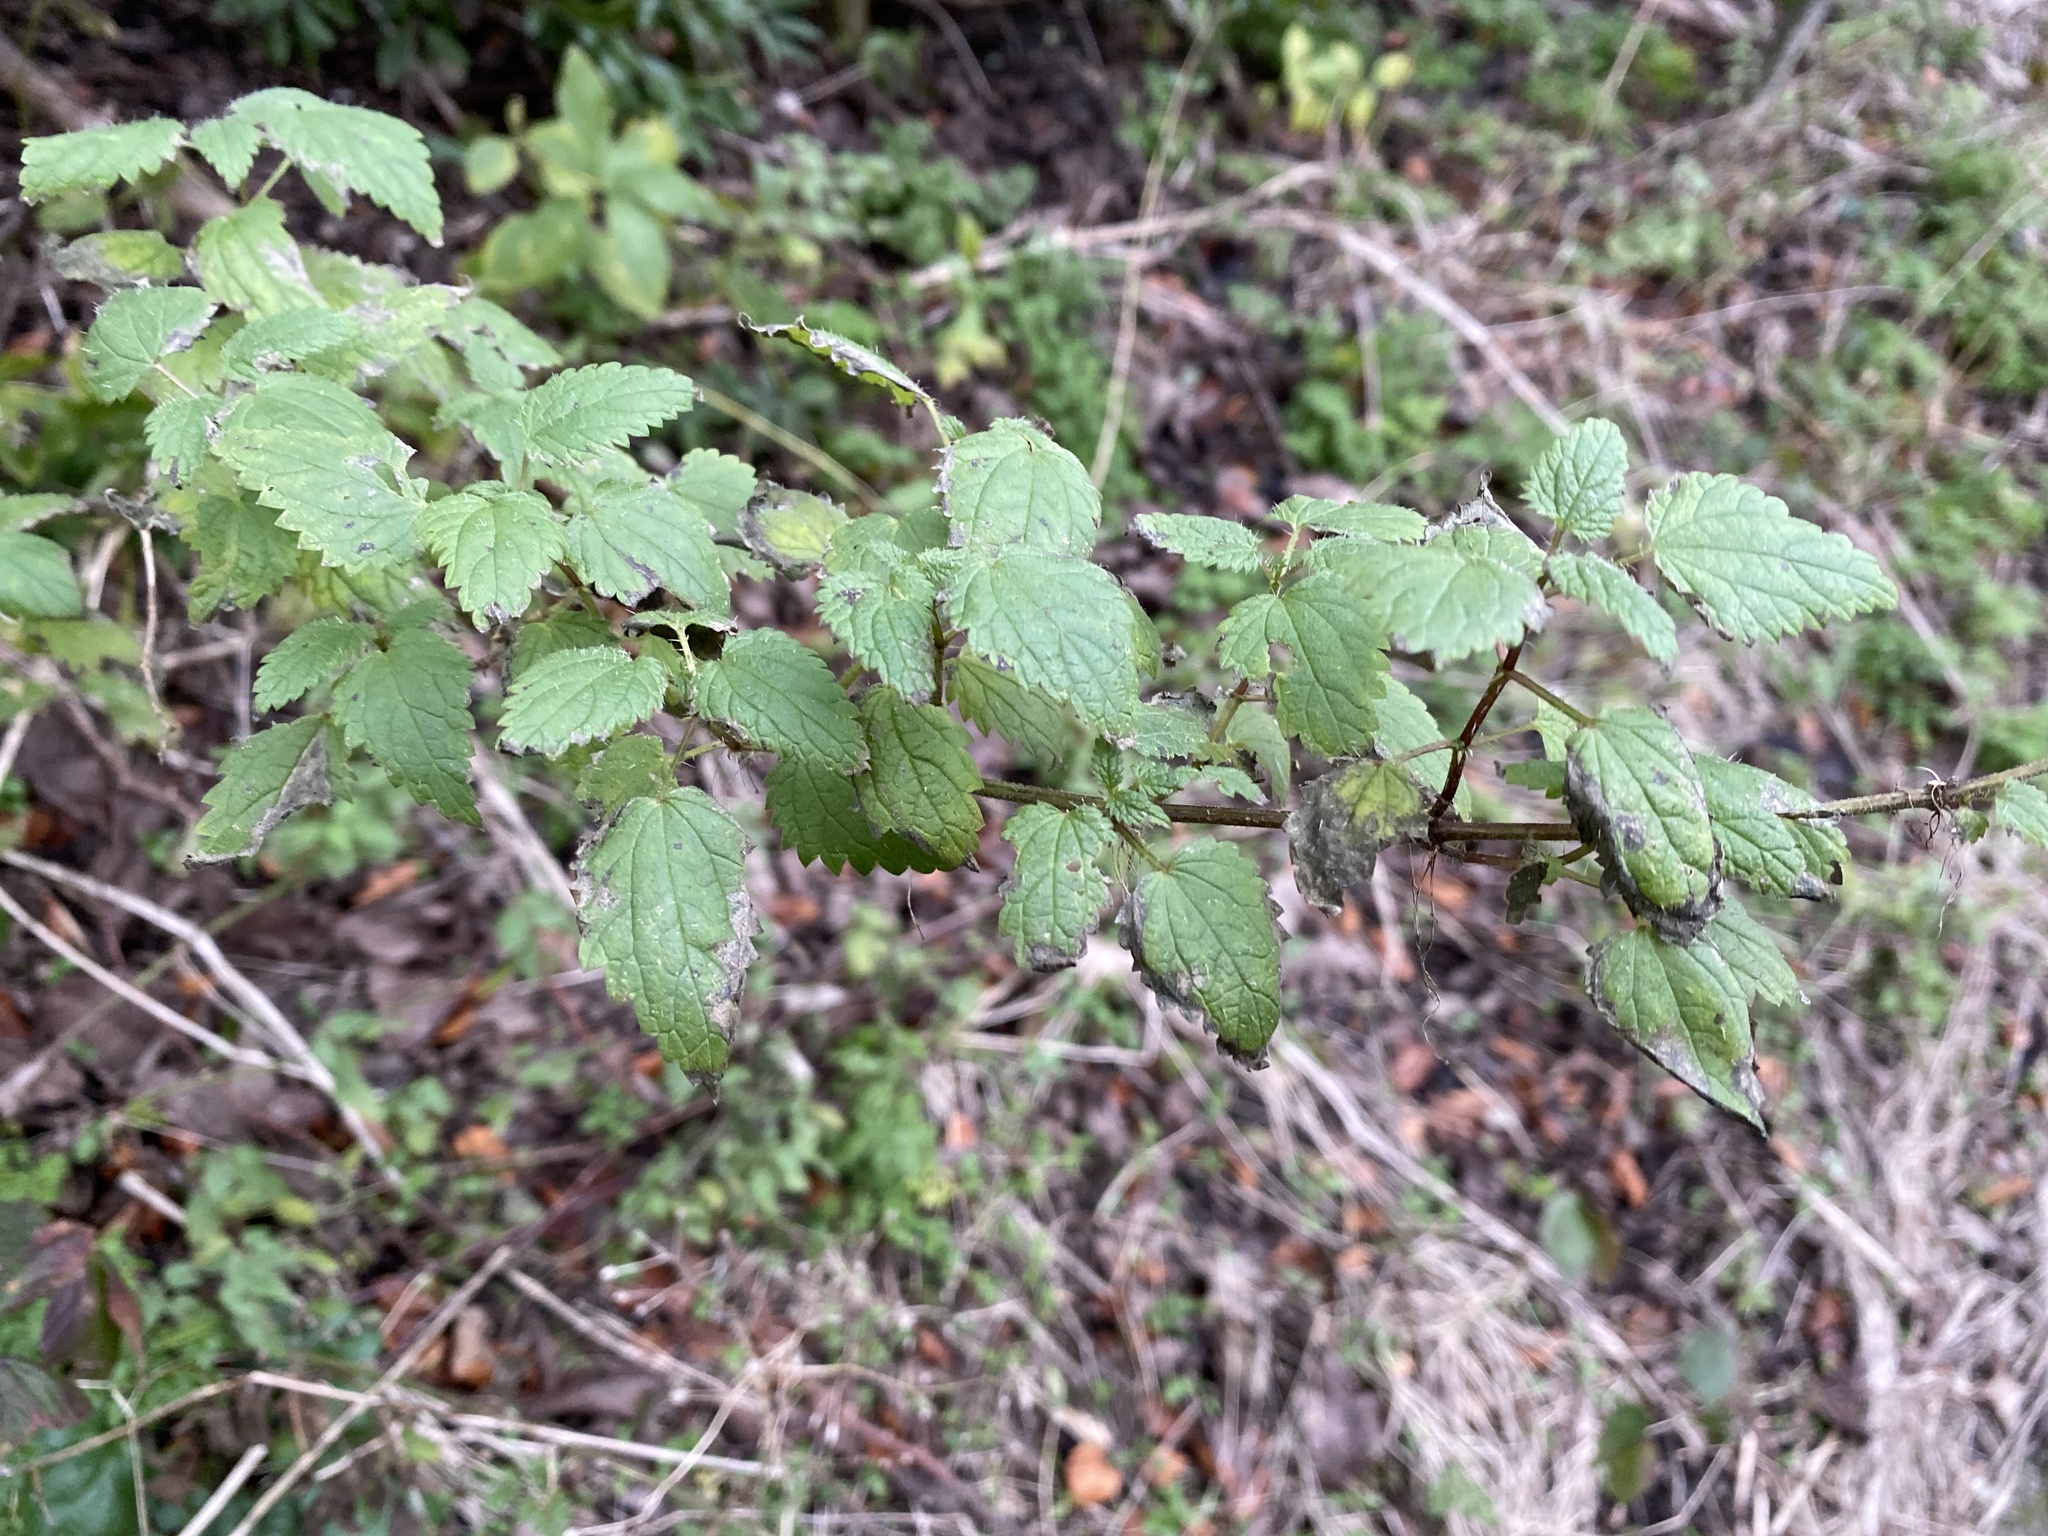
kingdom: Plantae
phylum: Tracheophyta
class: Magnoliopsida
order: Rosales
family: Urticaceae
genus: Urtica
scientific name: Urtica dioica
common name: Common nettle
